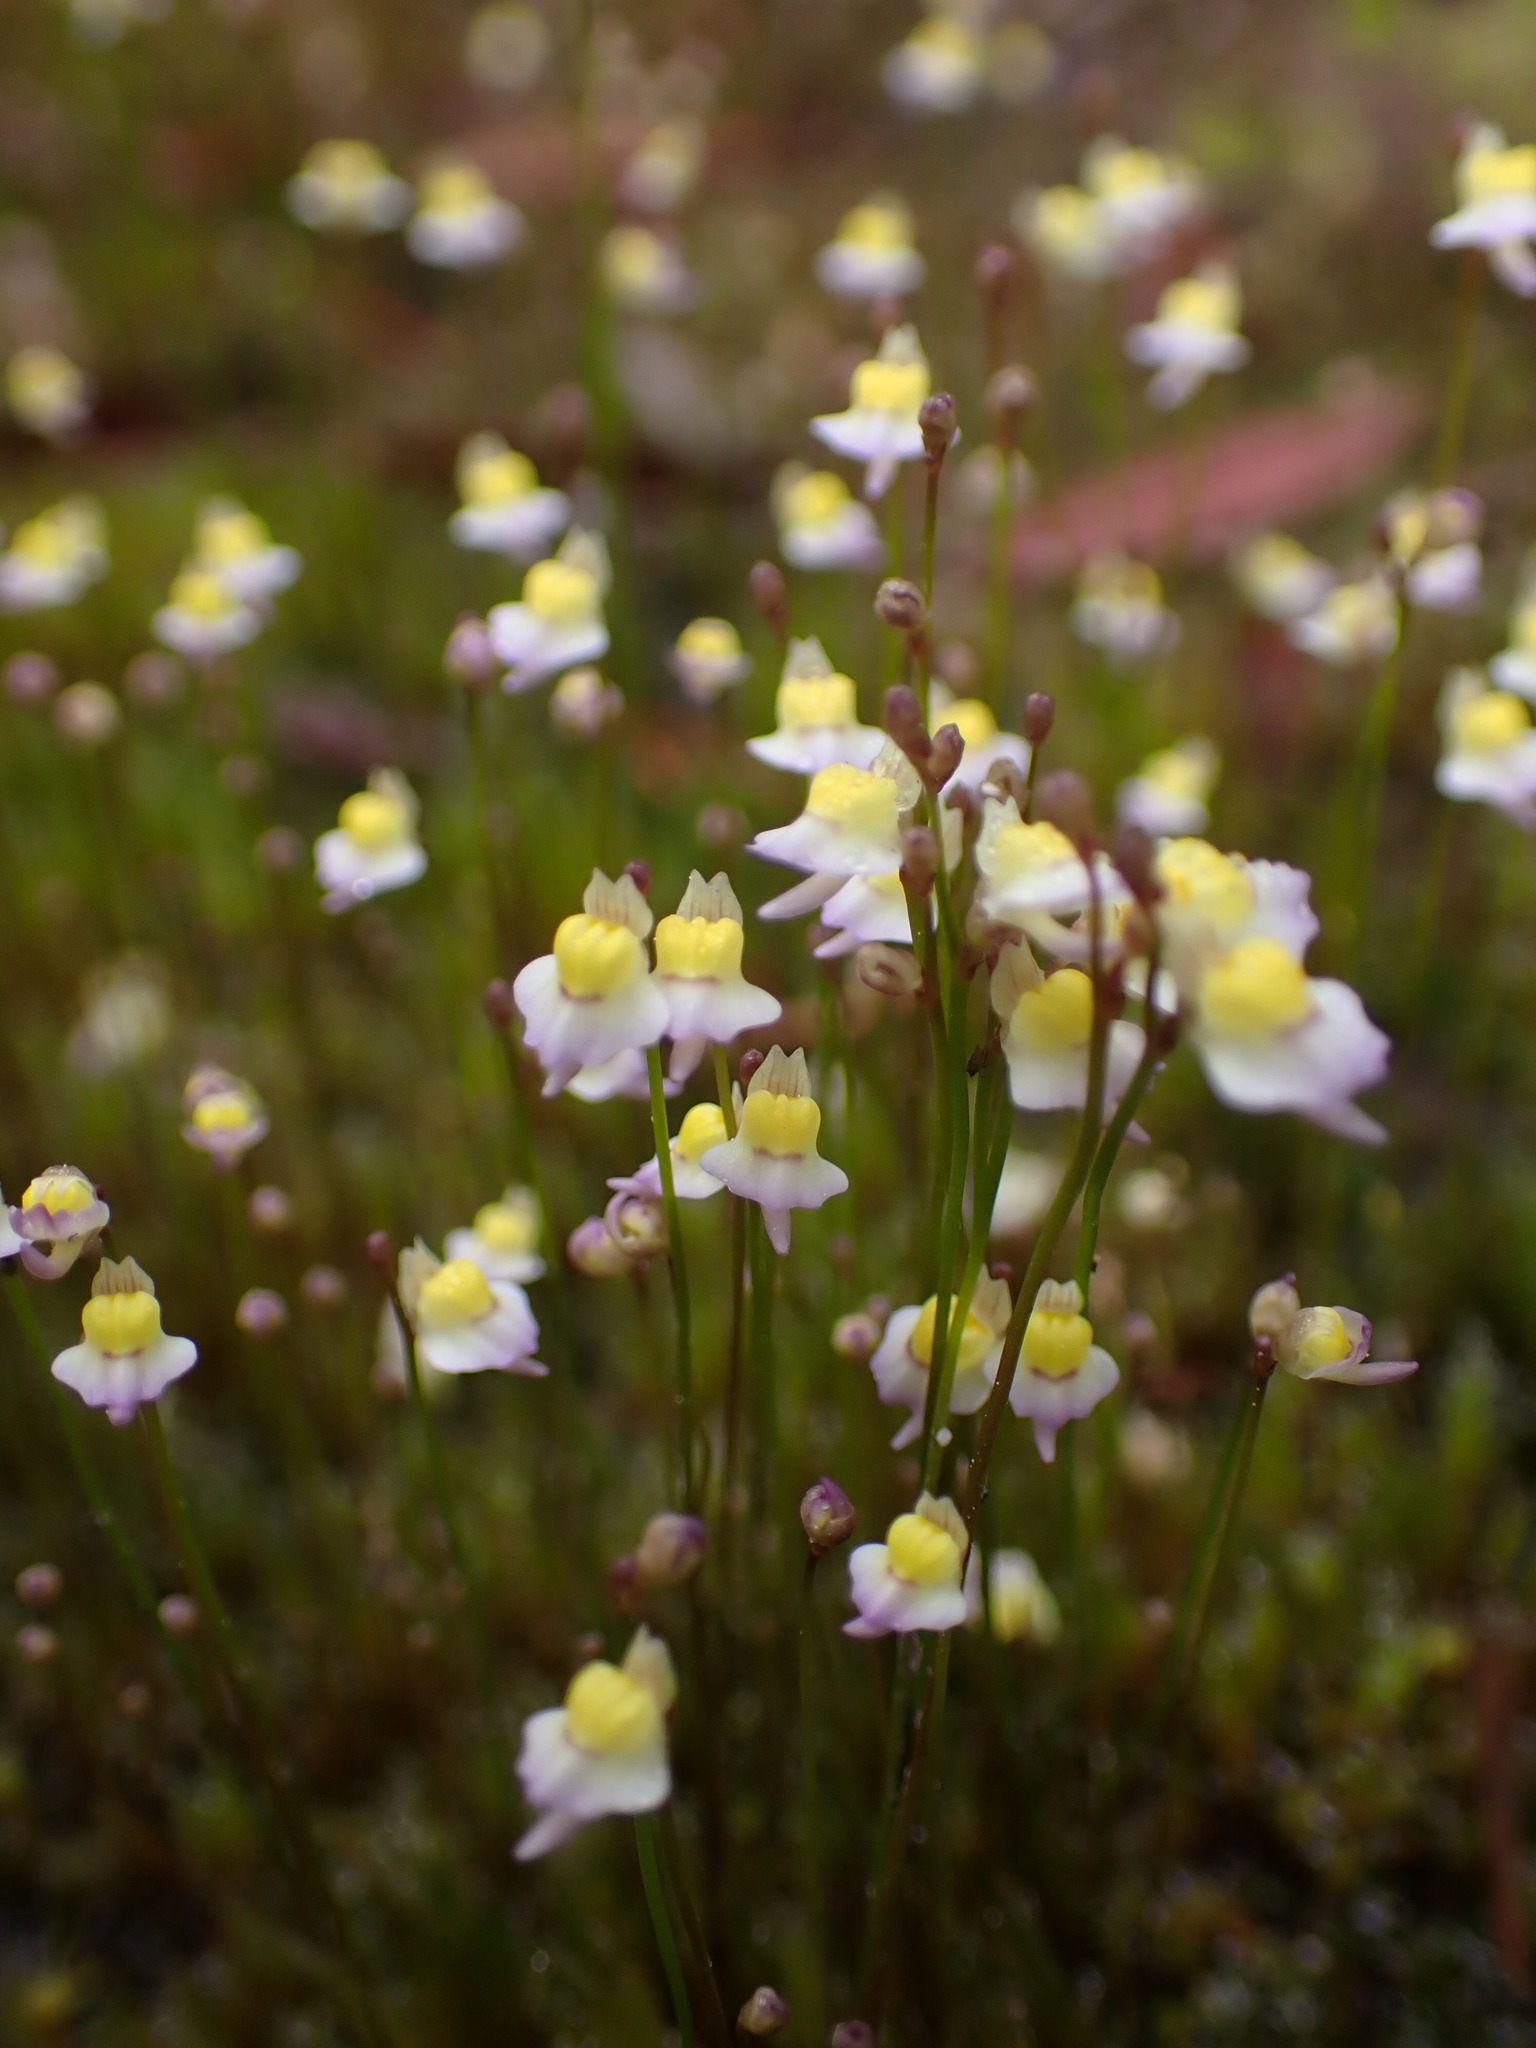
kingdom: Plantae
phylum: Tracheophyta
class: Magnoliopsida
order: Lamiales
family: Lentibulariaceae
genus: Utricularia
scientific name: Utricularia bisquamata
